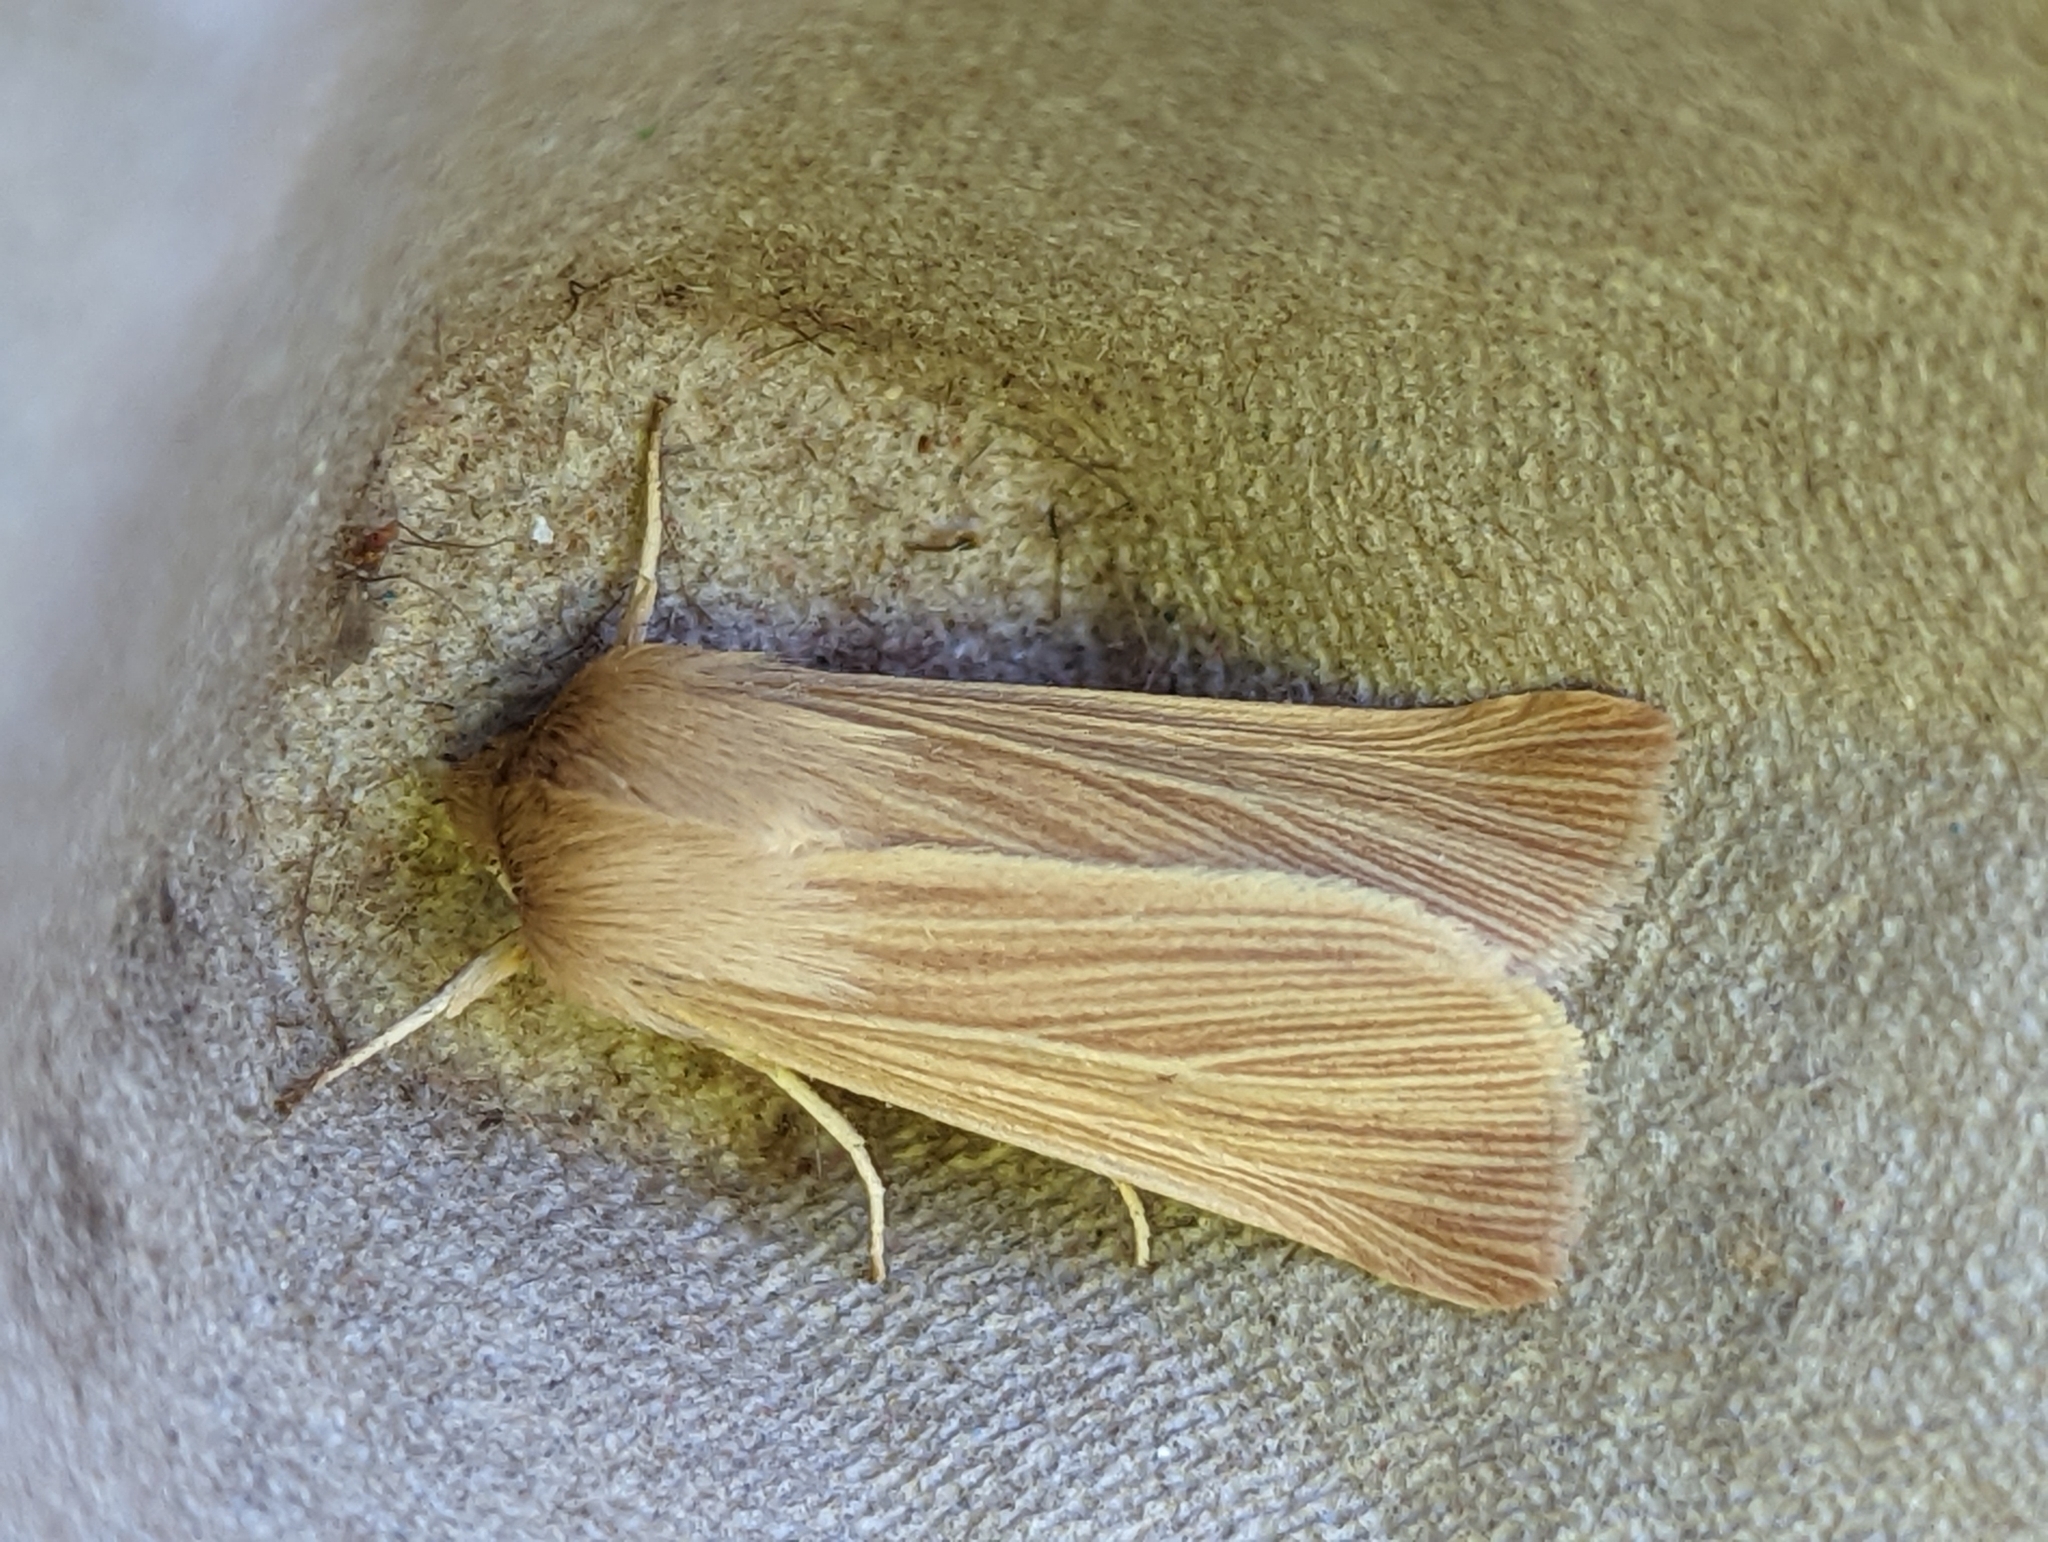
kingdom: Animalia
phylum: Arthropoda
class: Insecta
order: Lepidoptera
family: Noctuidae
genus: Mythimna
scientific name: Mythimna pallens
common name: Common wainscot
